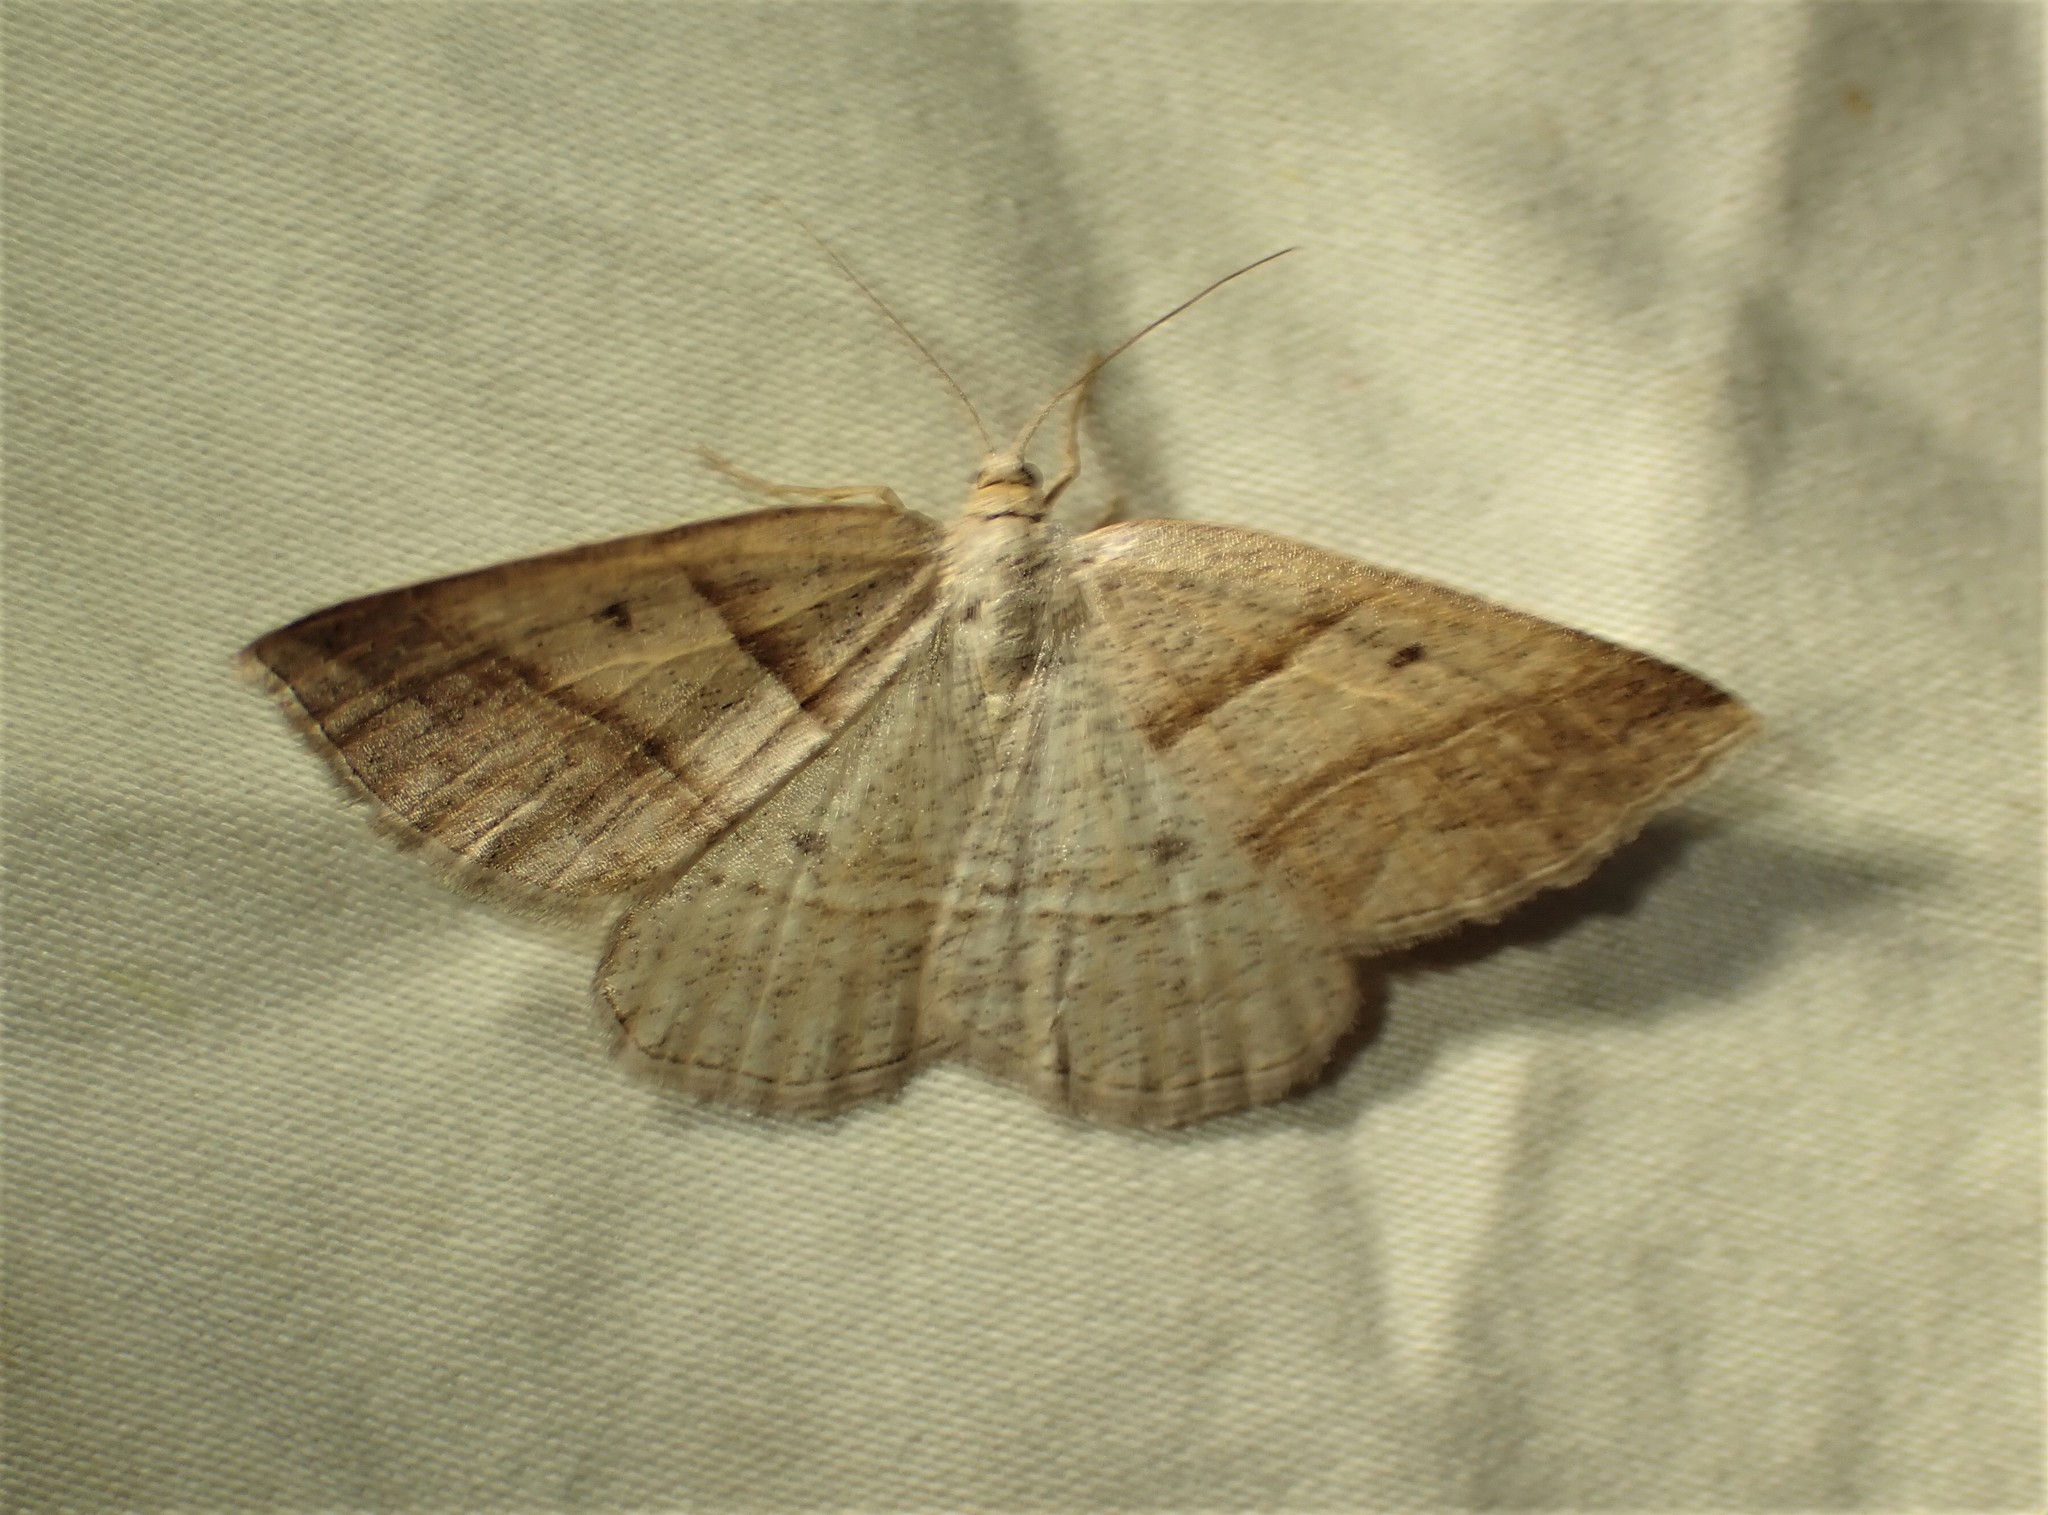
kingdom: Animalia
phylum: Arthropoda
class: Insecta
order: Lepidoptera
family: Pterophoridae
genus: Pterophorus
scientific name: Pterophorus Petrophora subaequaria
